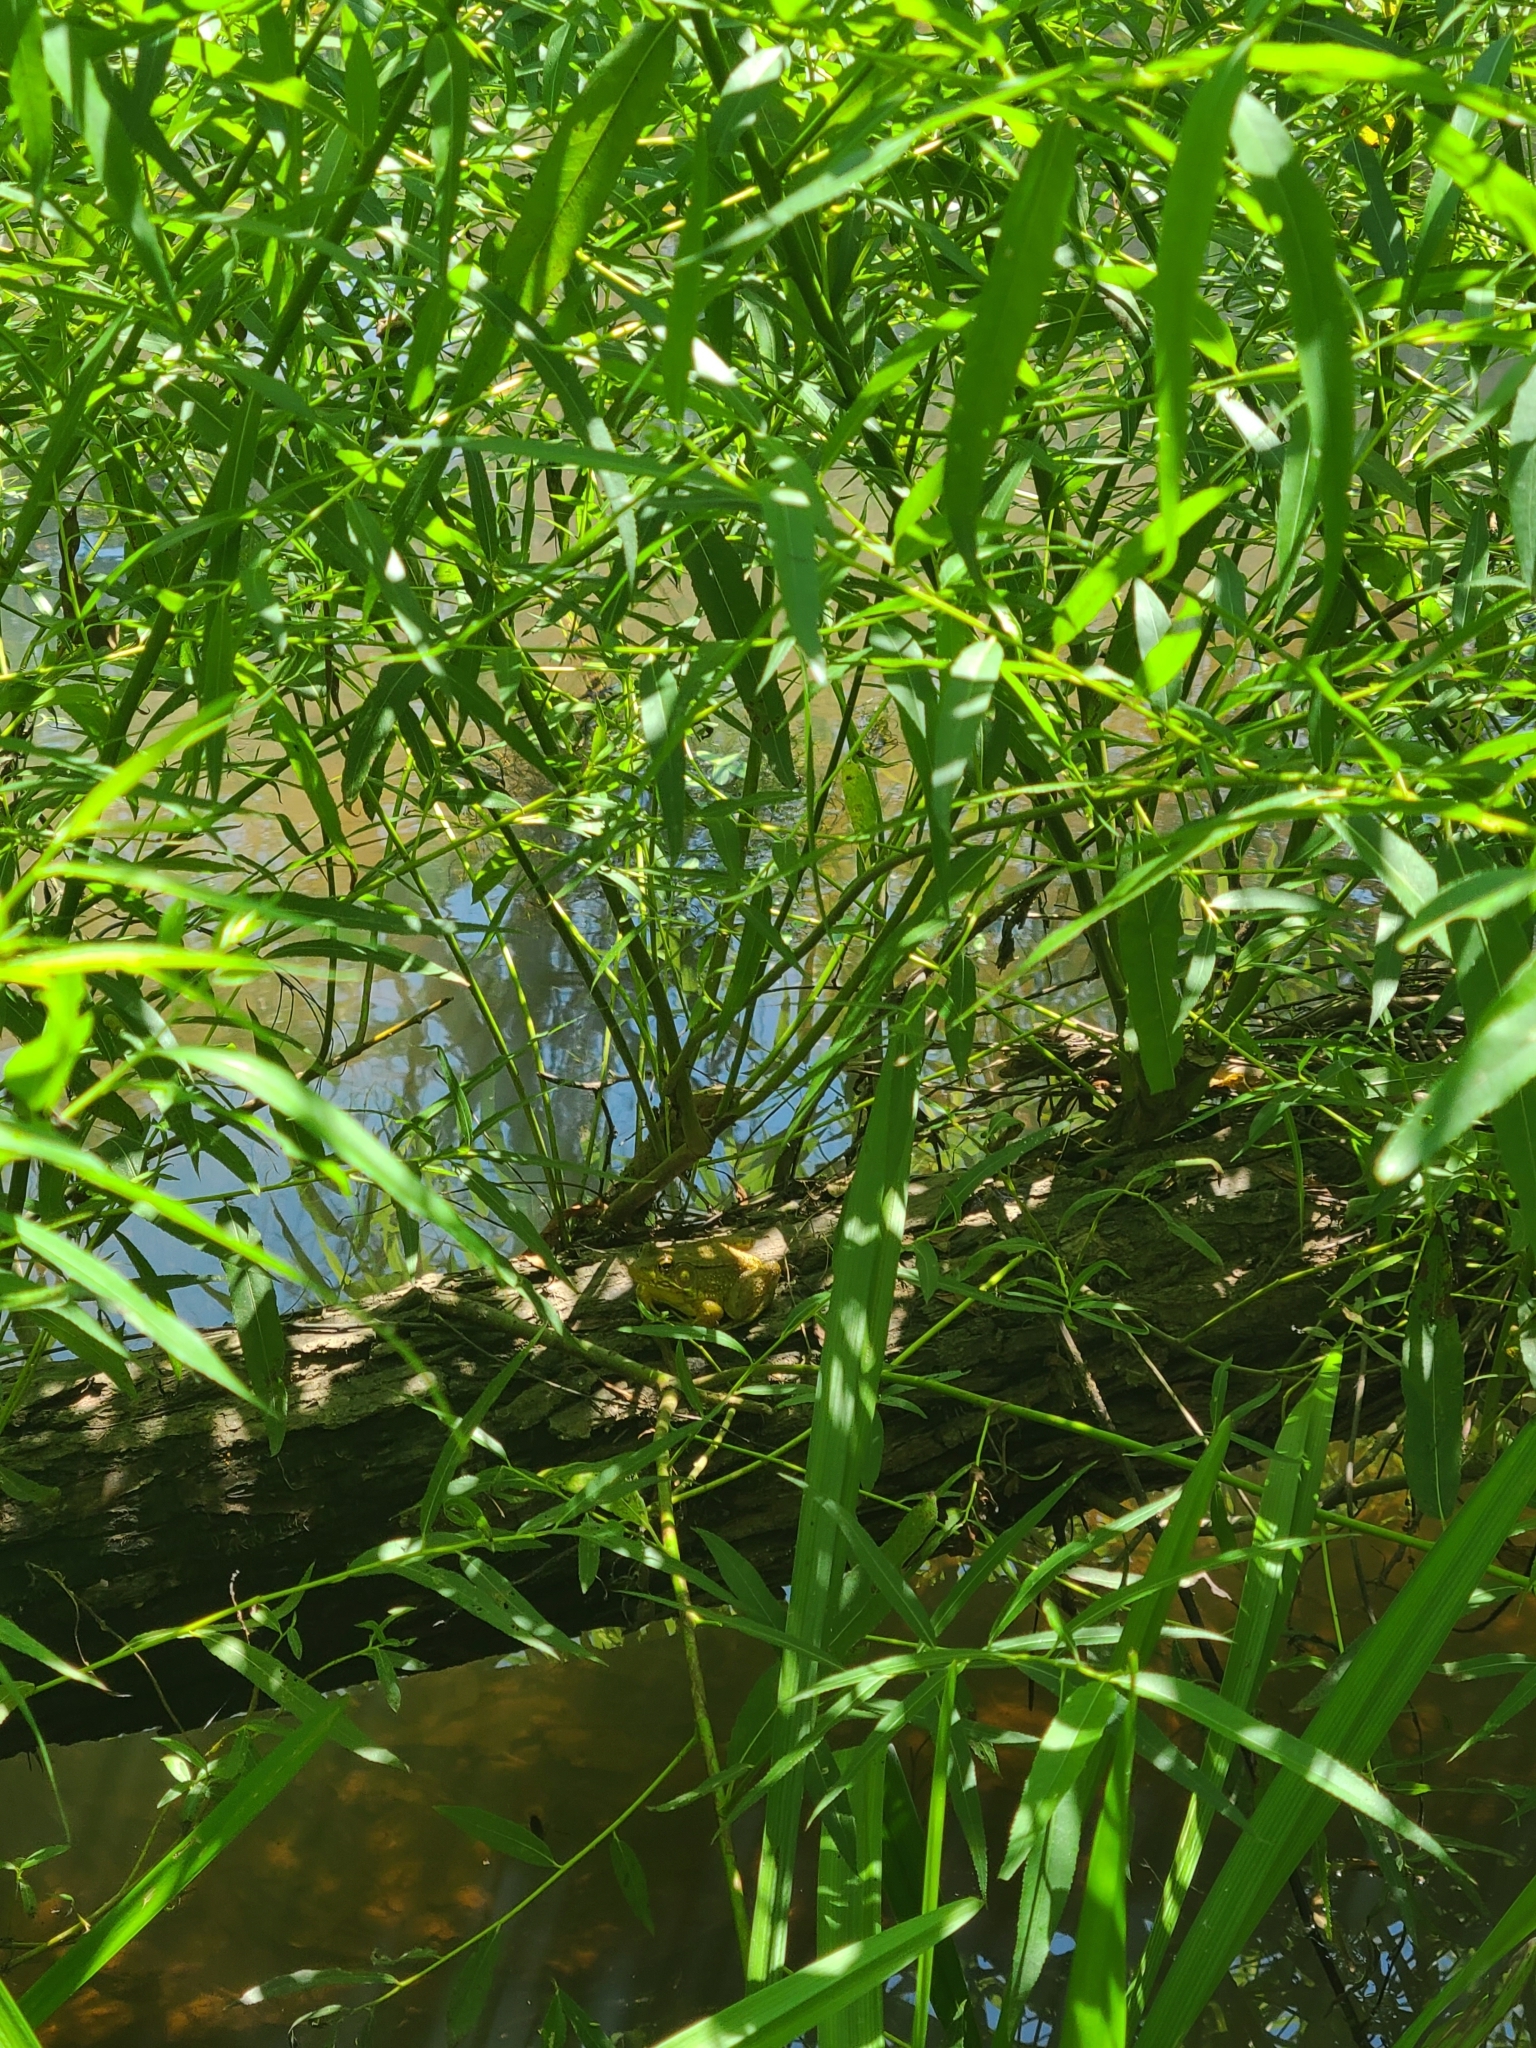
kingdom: Animalia
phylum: Chordata
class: Amphibia
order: Anura
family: Ranidae
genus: Lithobates
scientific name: Lithobates clamitans
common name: Green frog
